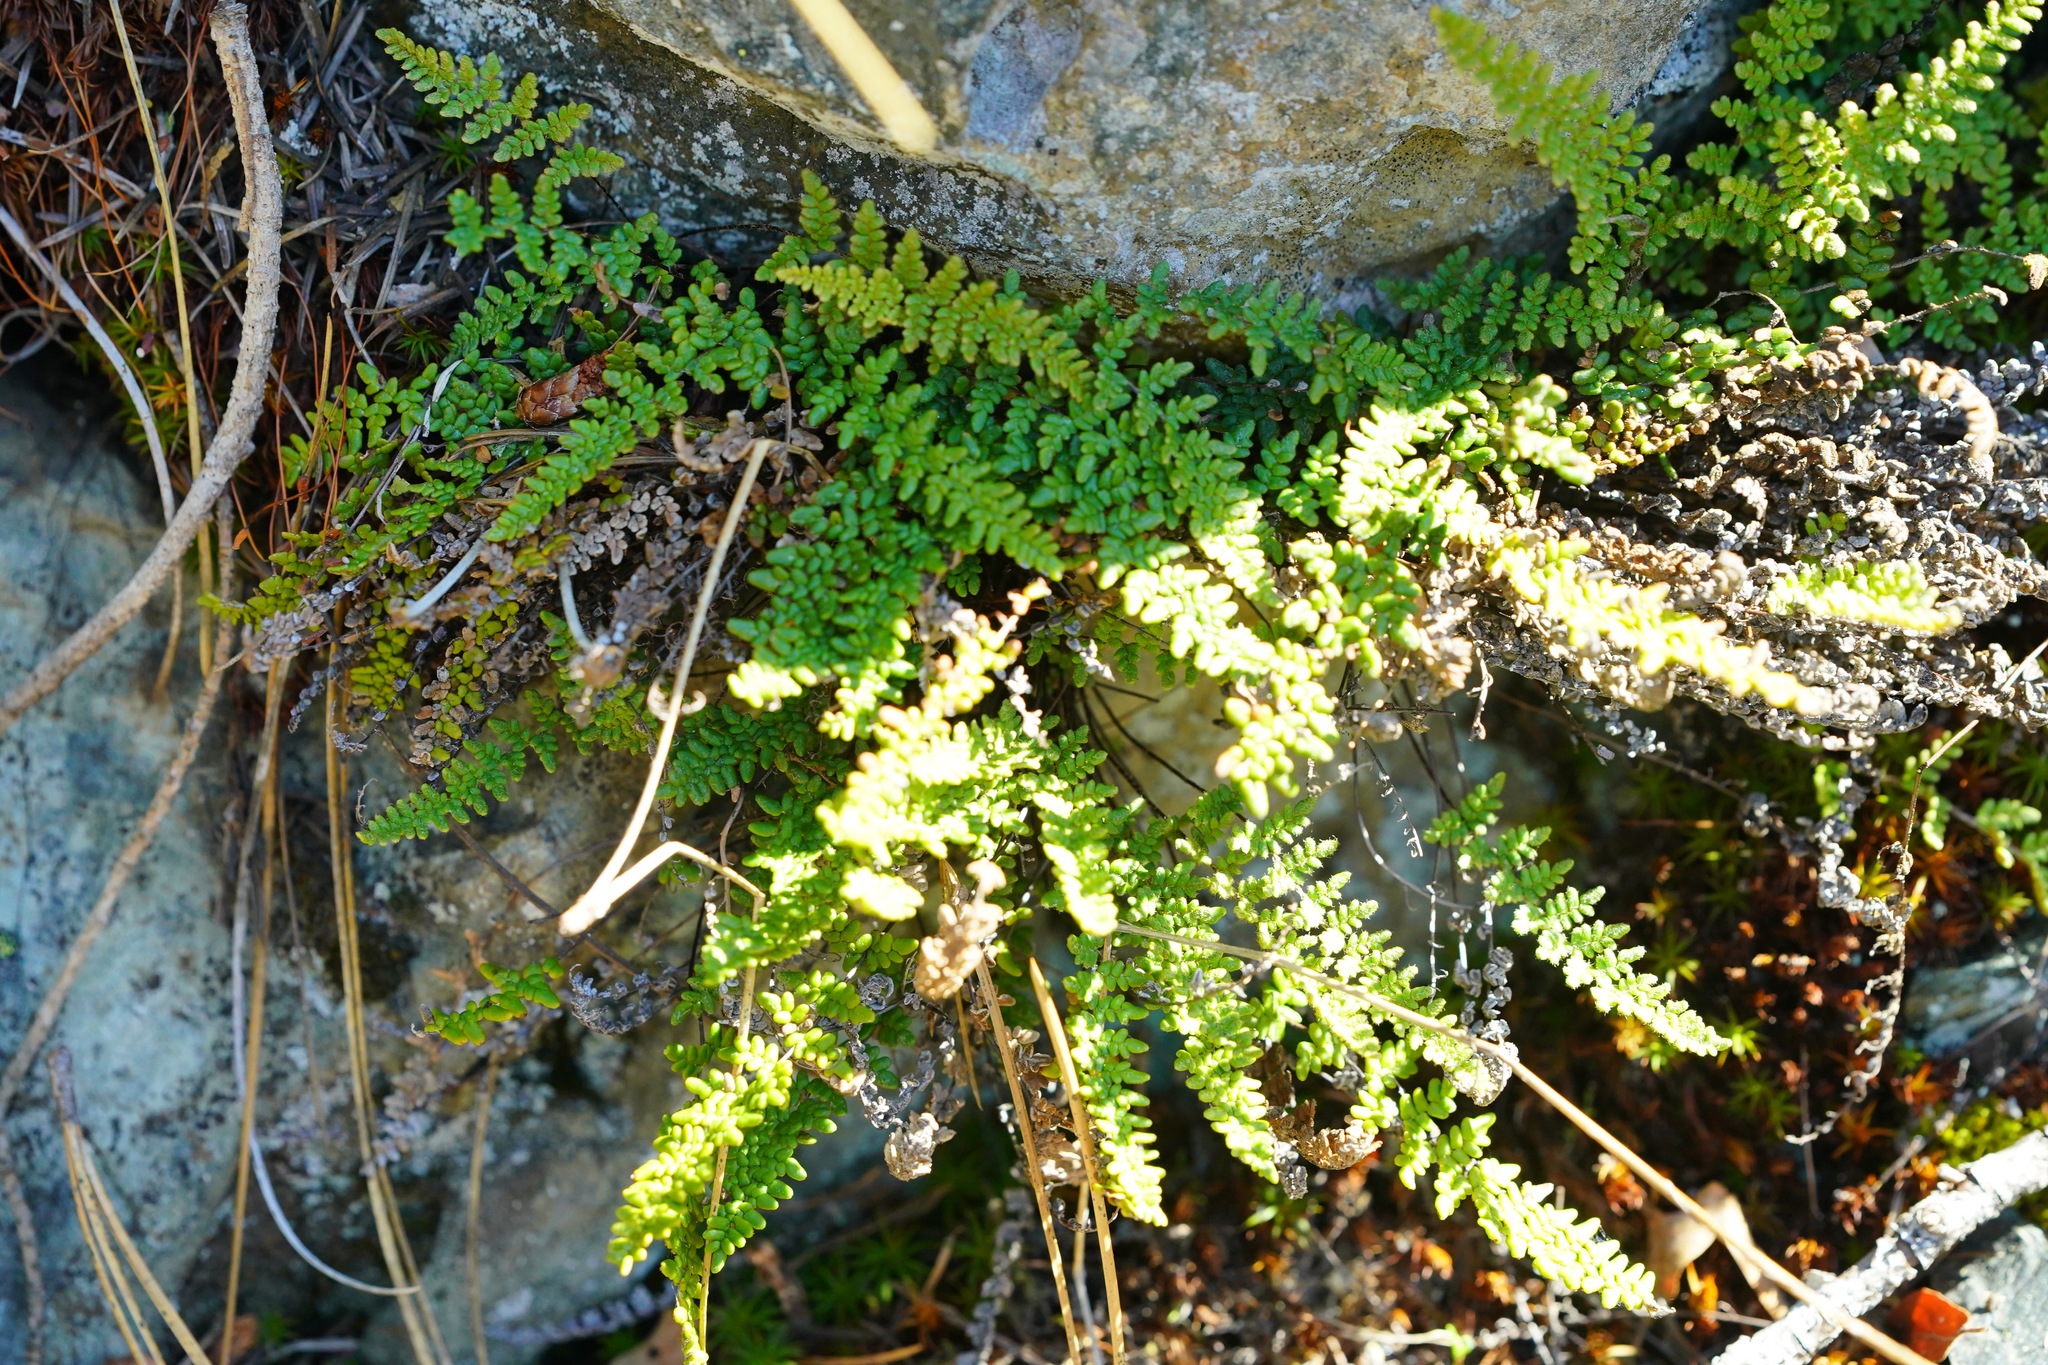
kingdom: Plantae
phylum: Tracheophyta
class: Polypodiopsida
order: Polypodiales
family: Pteridaceae
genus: Myriopteris
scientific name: Myriopteris gracillima
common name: Lace fern
